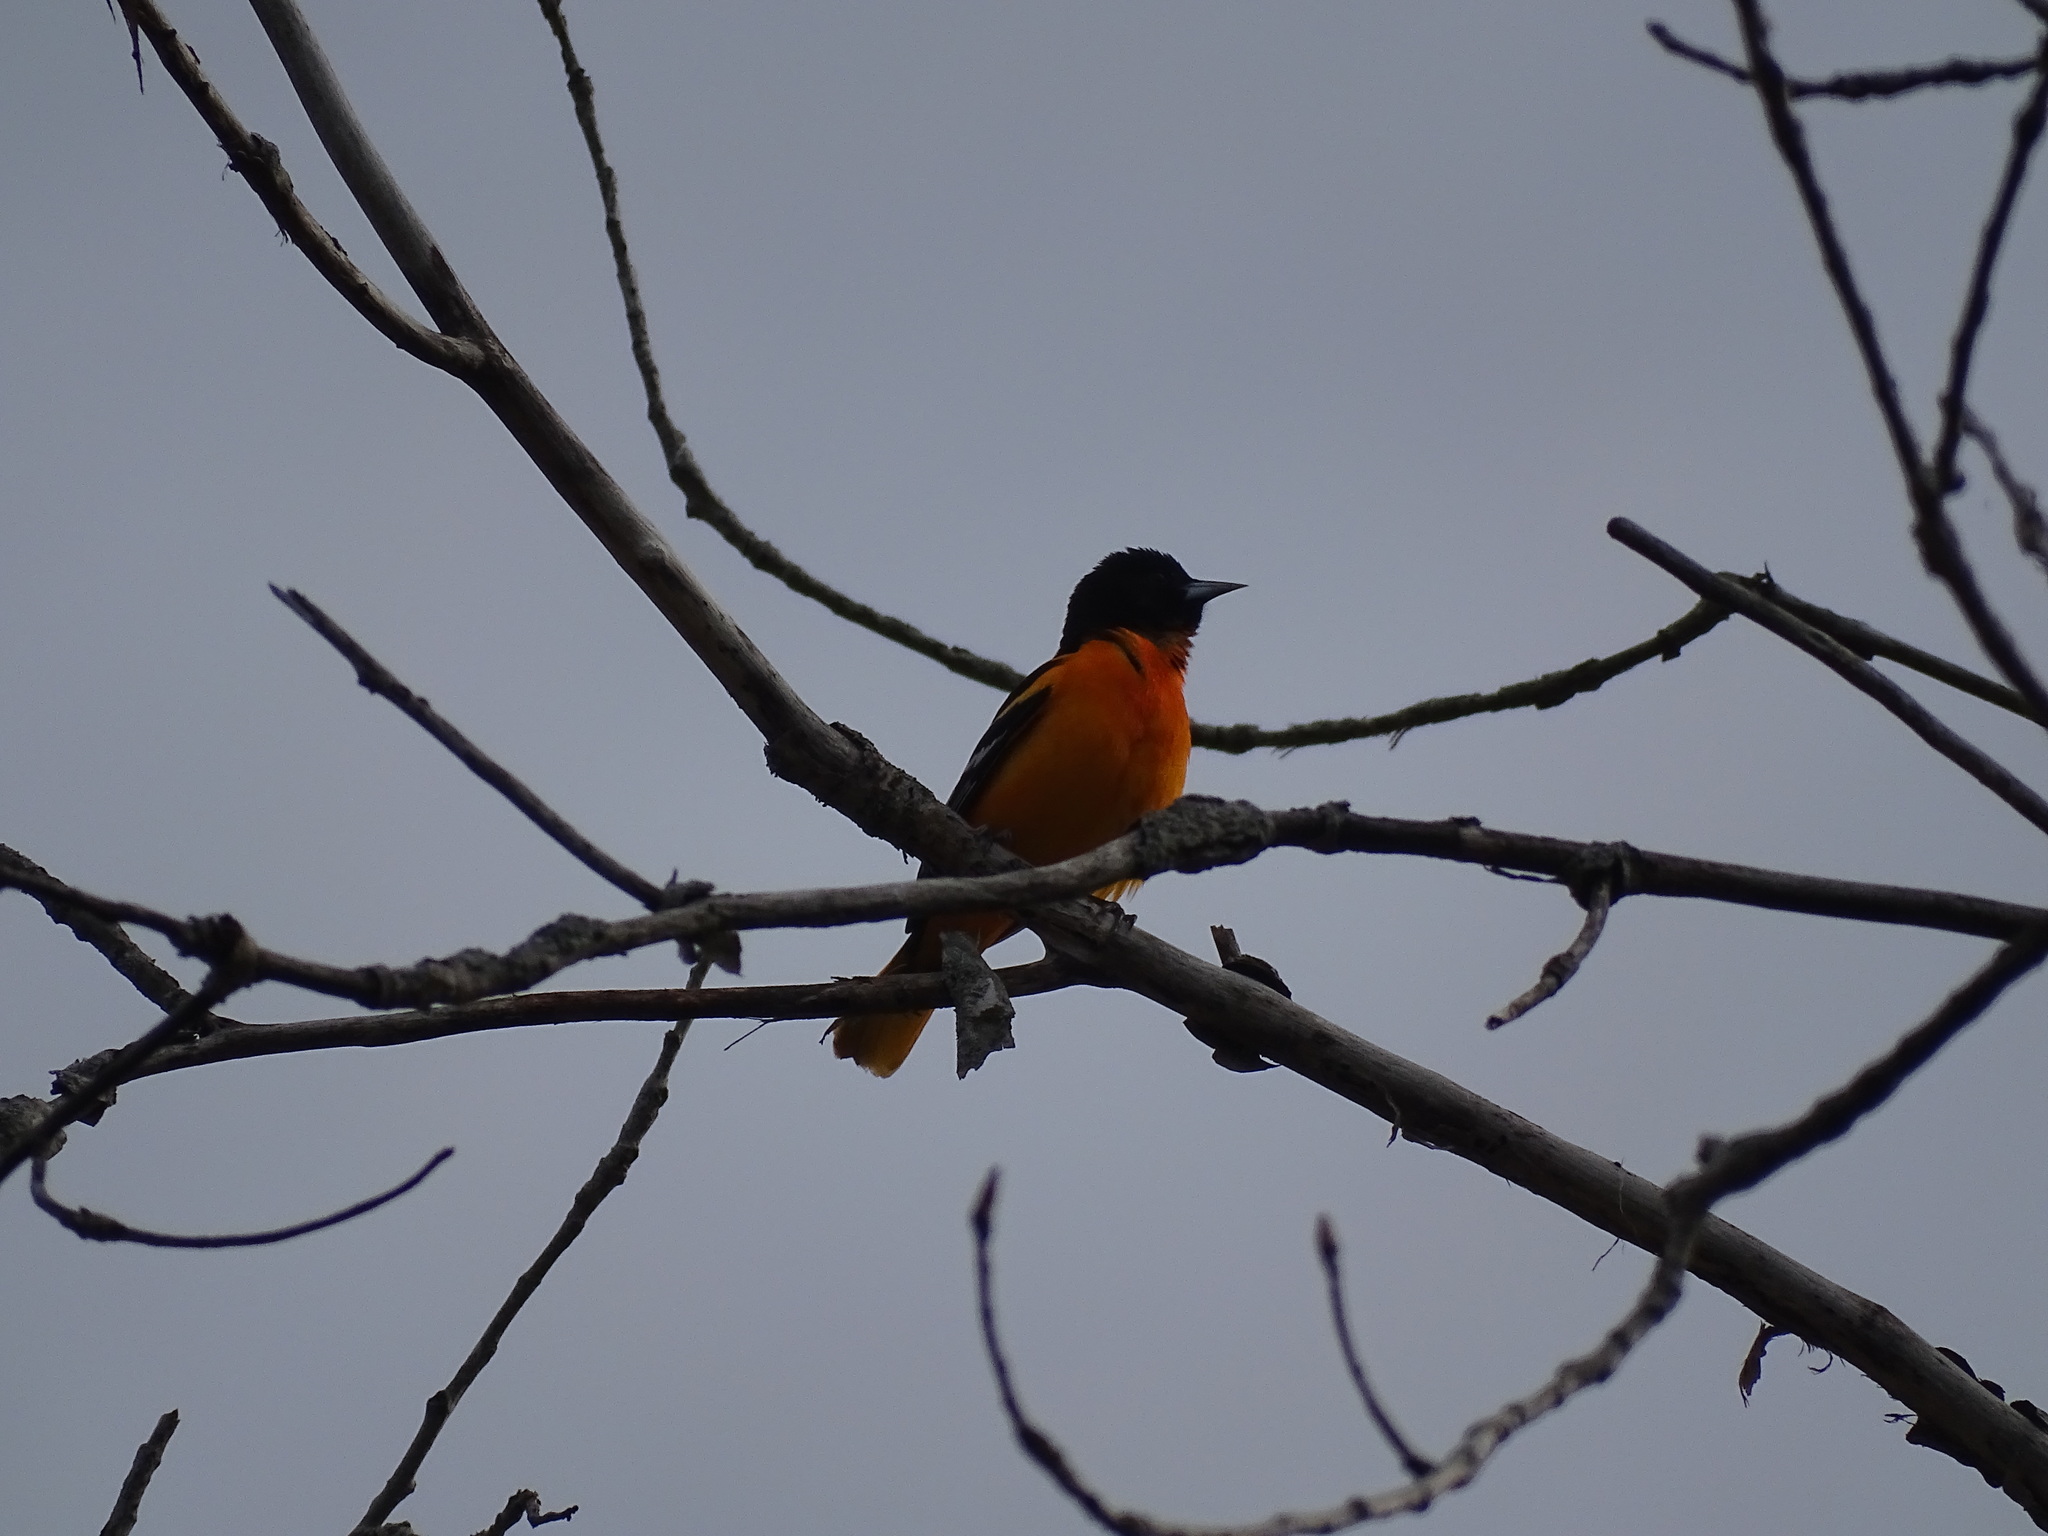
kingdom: Animalia
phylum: Chordata
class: Aves
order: Passeriformes
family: Icteridae
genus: Icterus
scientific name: Icterus galbula
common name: Baltimore oriole
